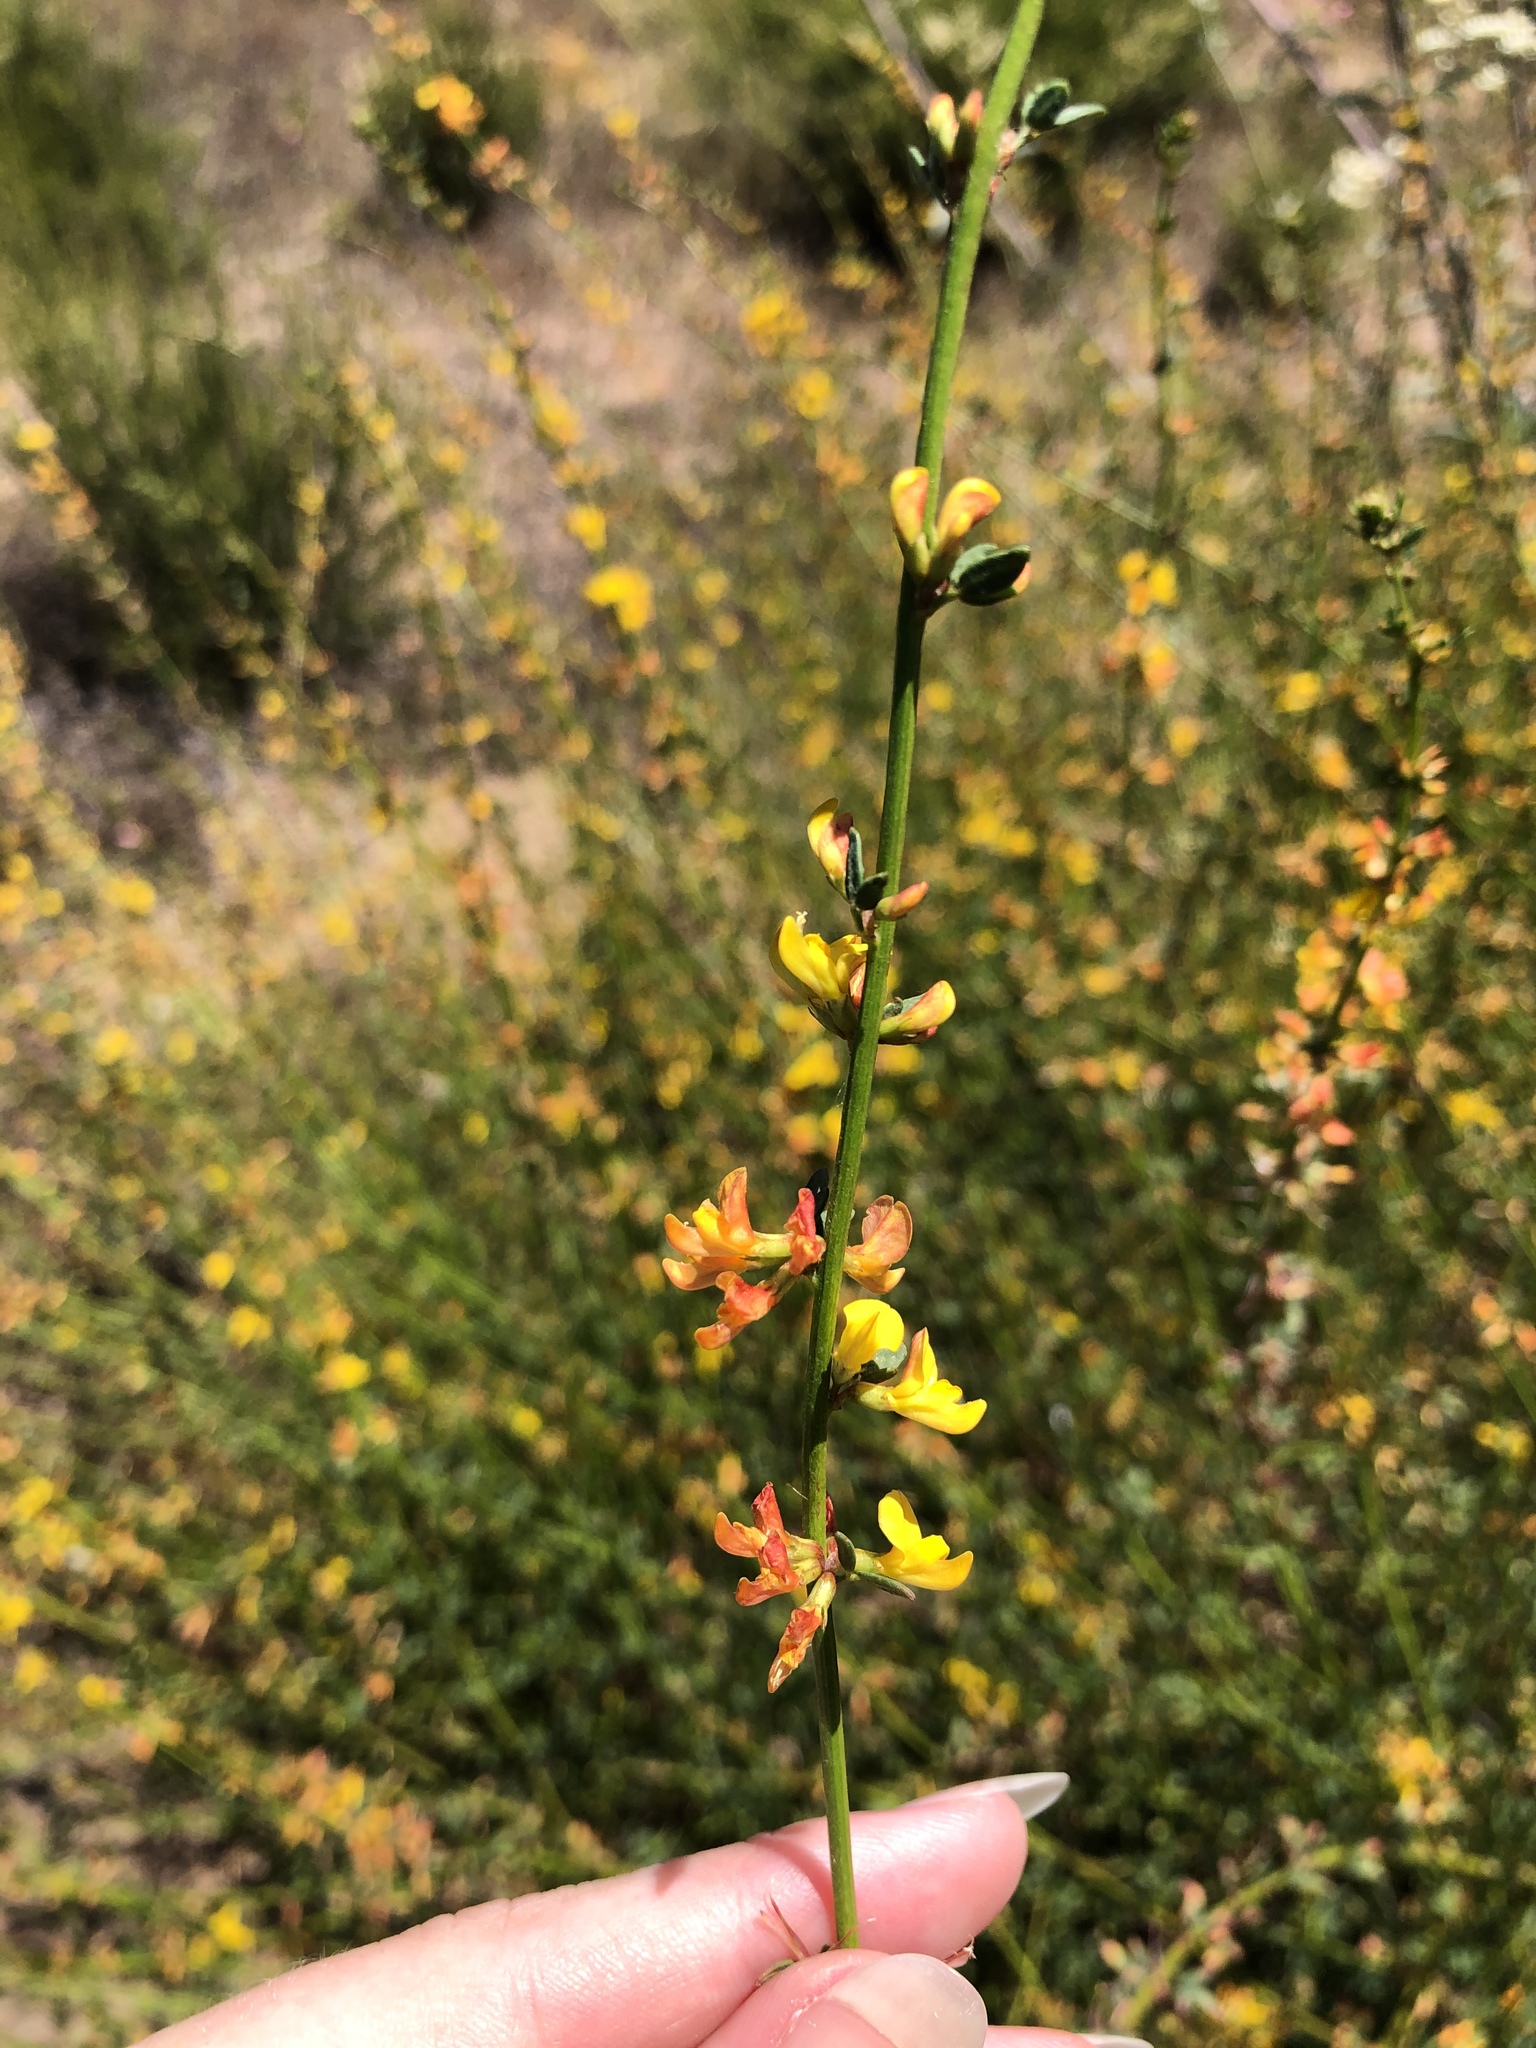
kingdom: Plantae
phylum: Tracheophyta
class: Magnoliopsida
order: Fabales
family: Fabaceae
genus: Acmispon
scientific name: Acmispon glaber
